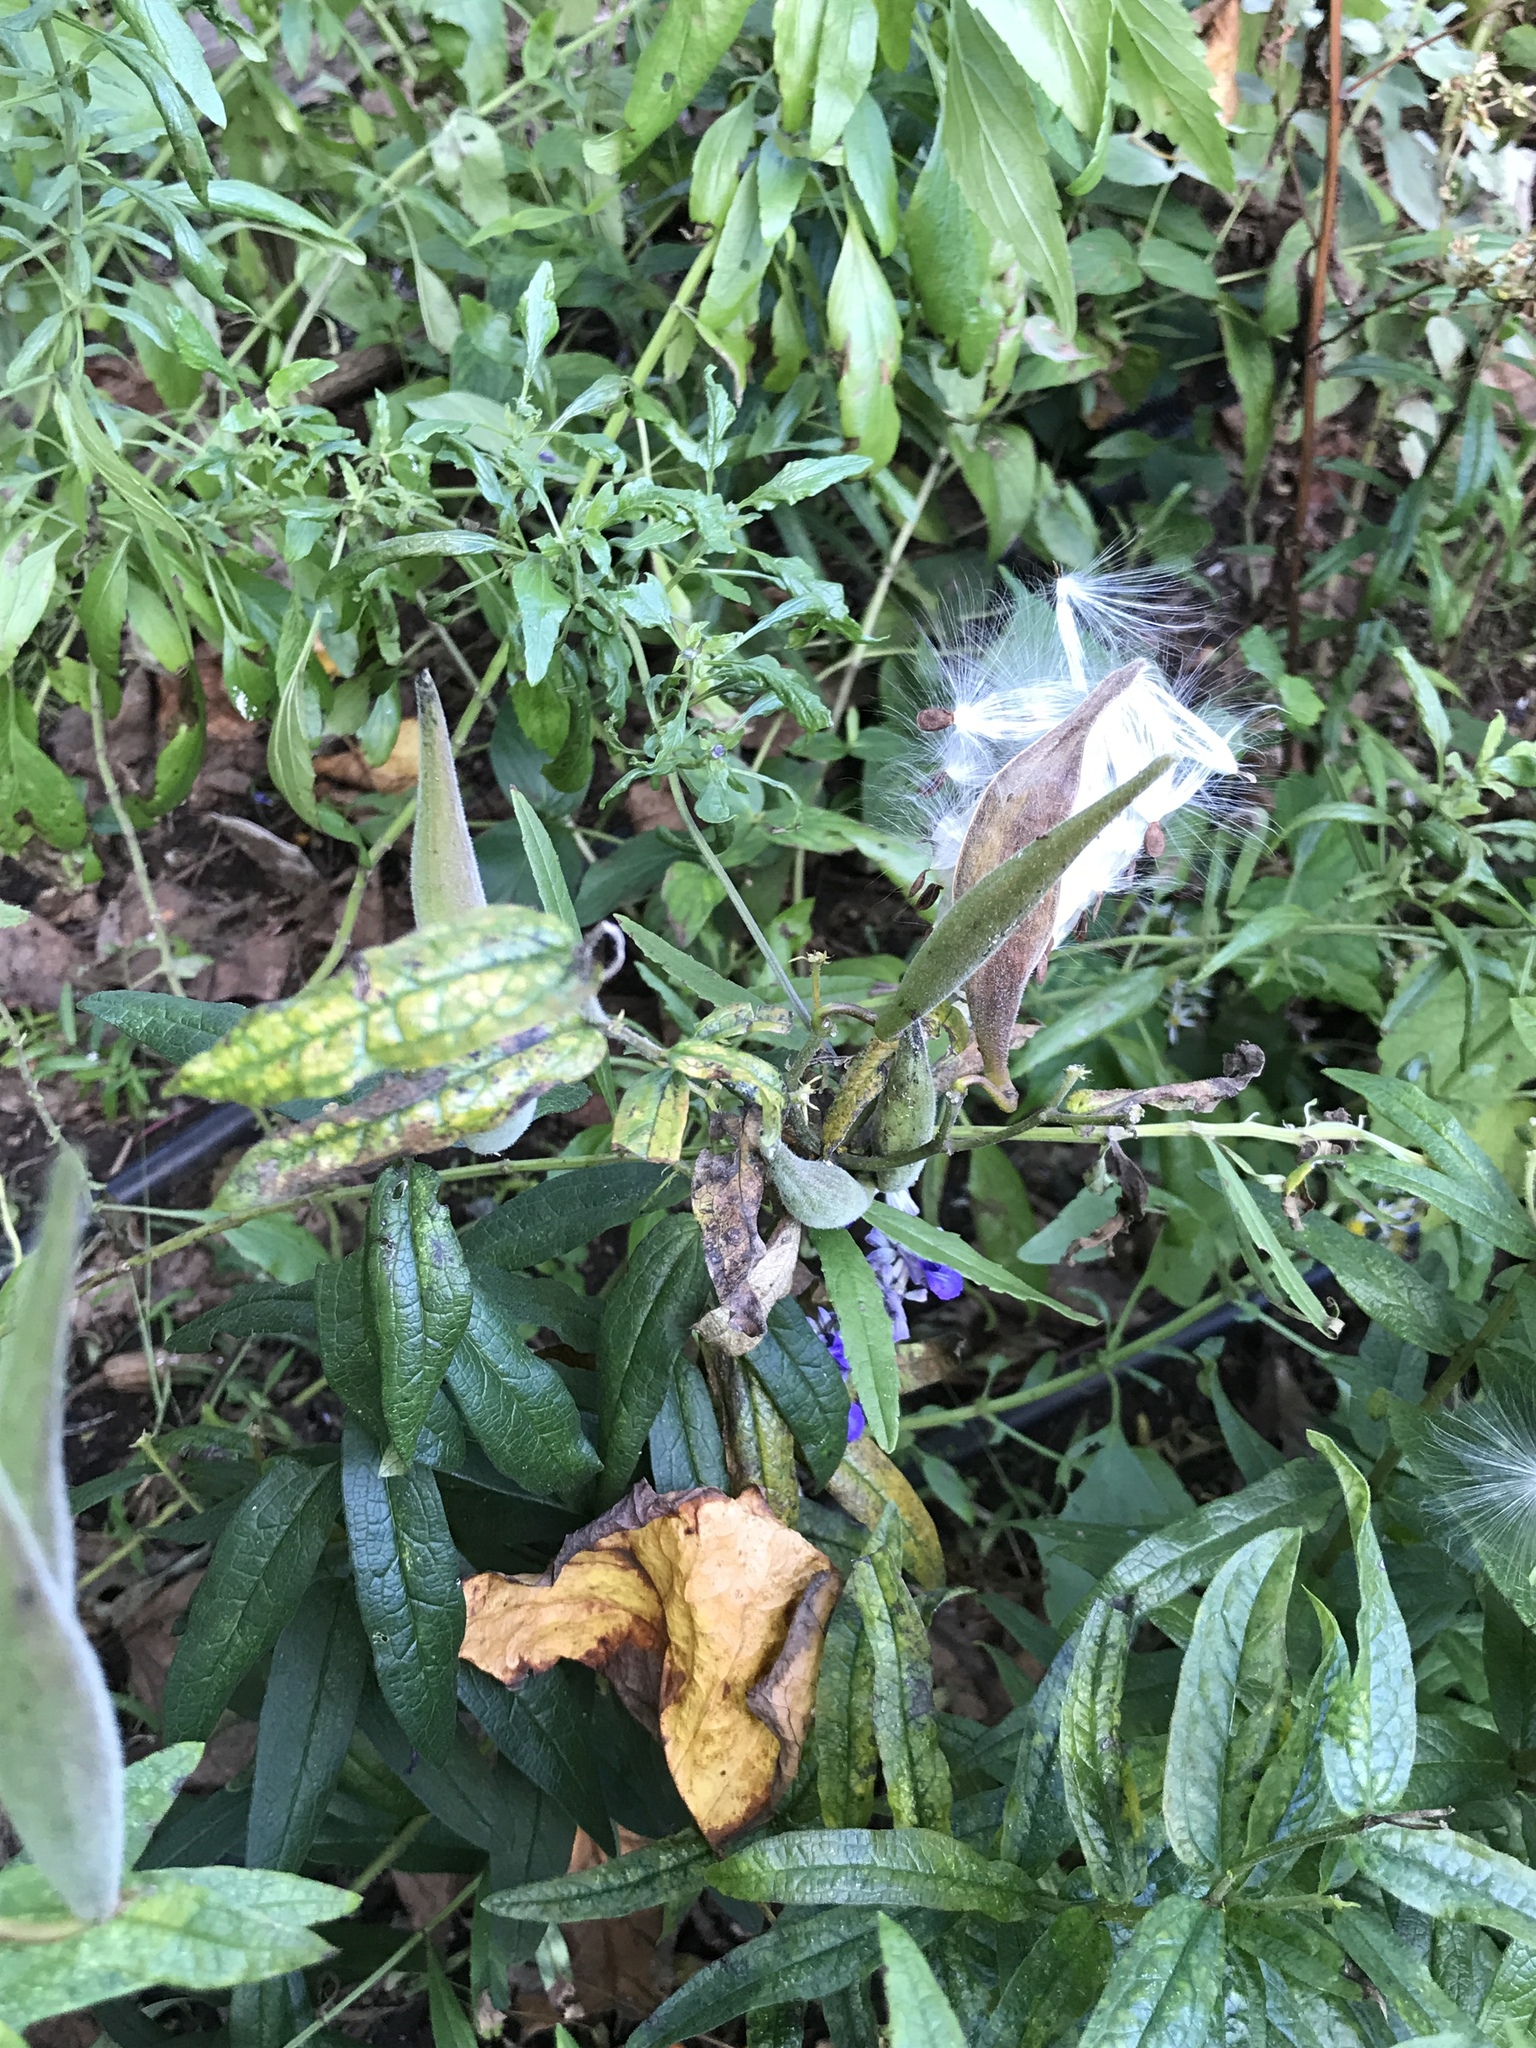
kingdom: Plantae
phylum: Tracheophyta
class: Magnoliopsida
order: Gentianales
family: Apocynaceae
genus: Asclepias
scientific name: Asclepias tuberosa
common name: Butterfly milkweed
